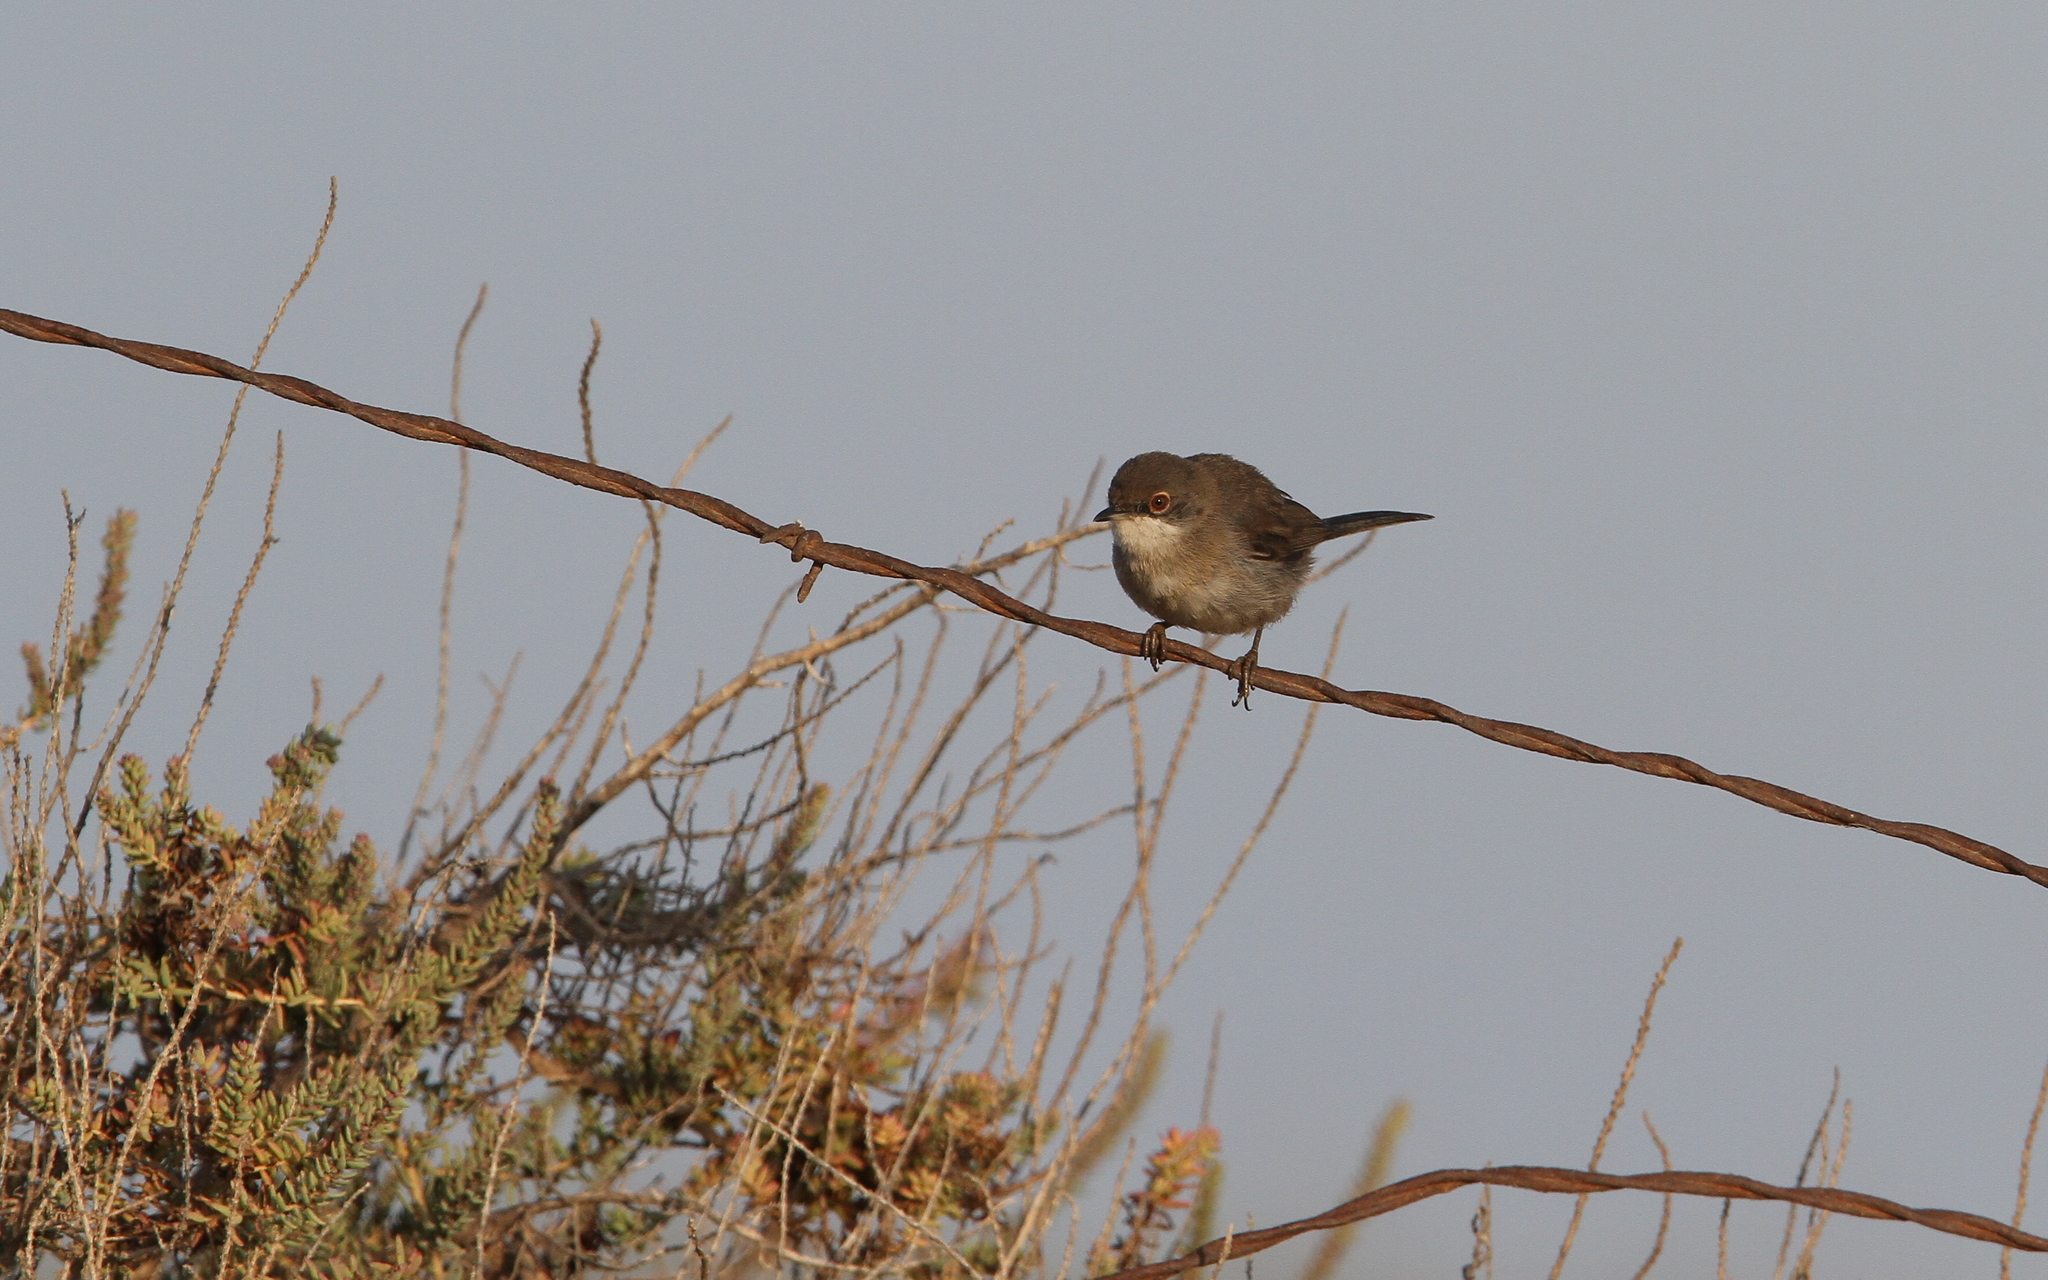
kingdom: Animalia
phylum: Chordata
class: Aves
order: Passeriformes
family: Sylviidae
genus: Curruca
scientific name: Curruca melanocephala
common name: Sardinian warbler
